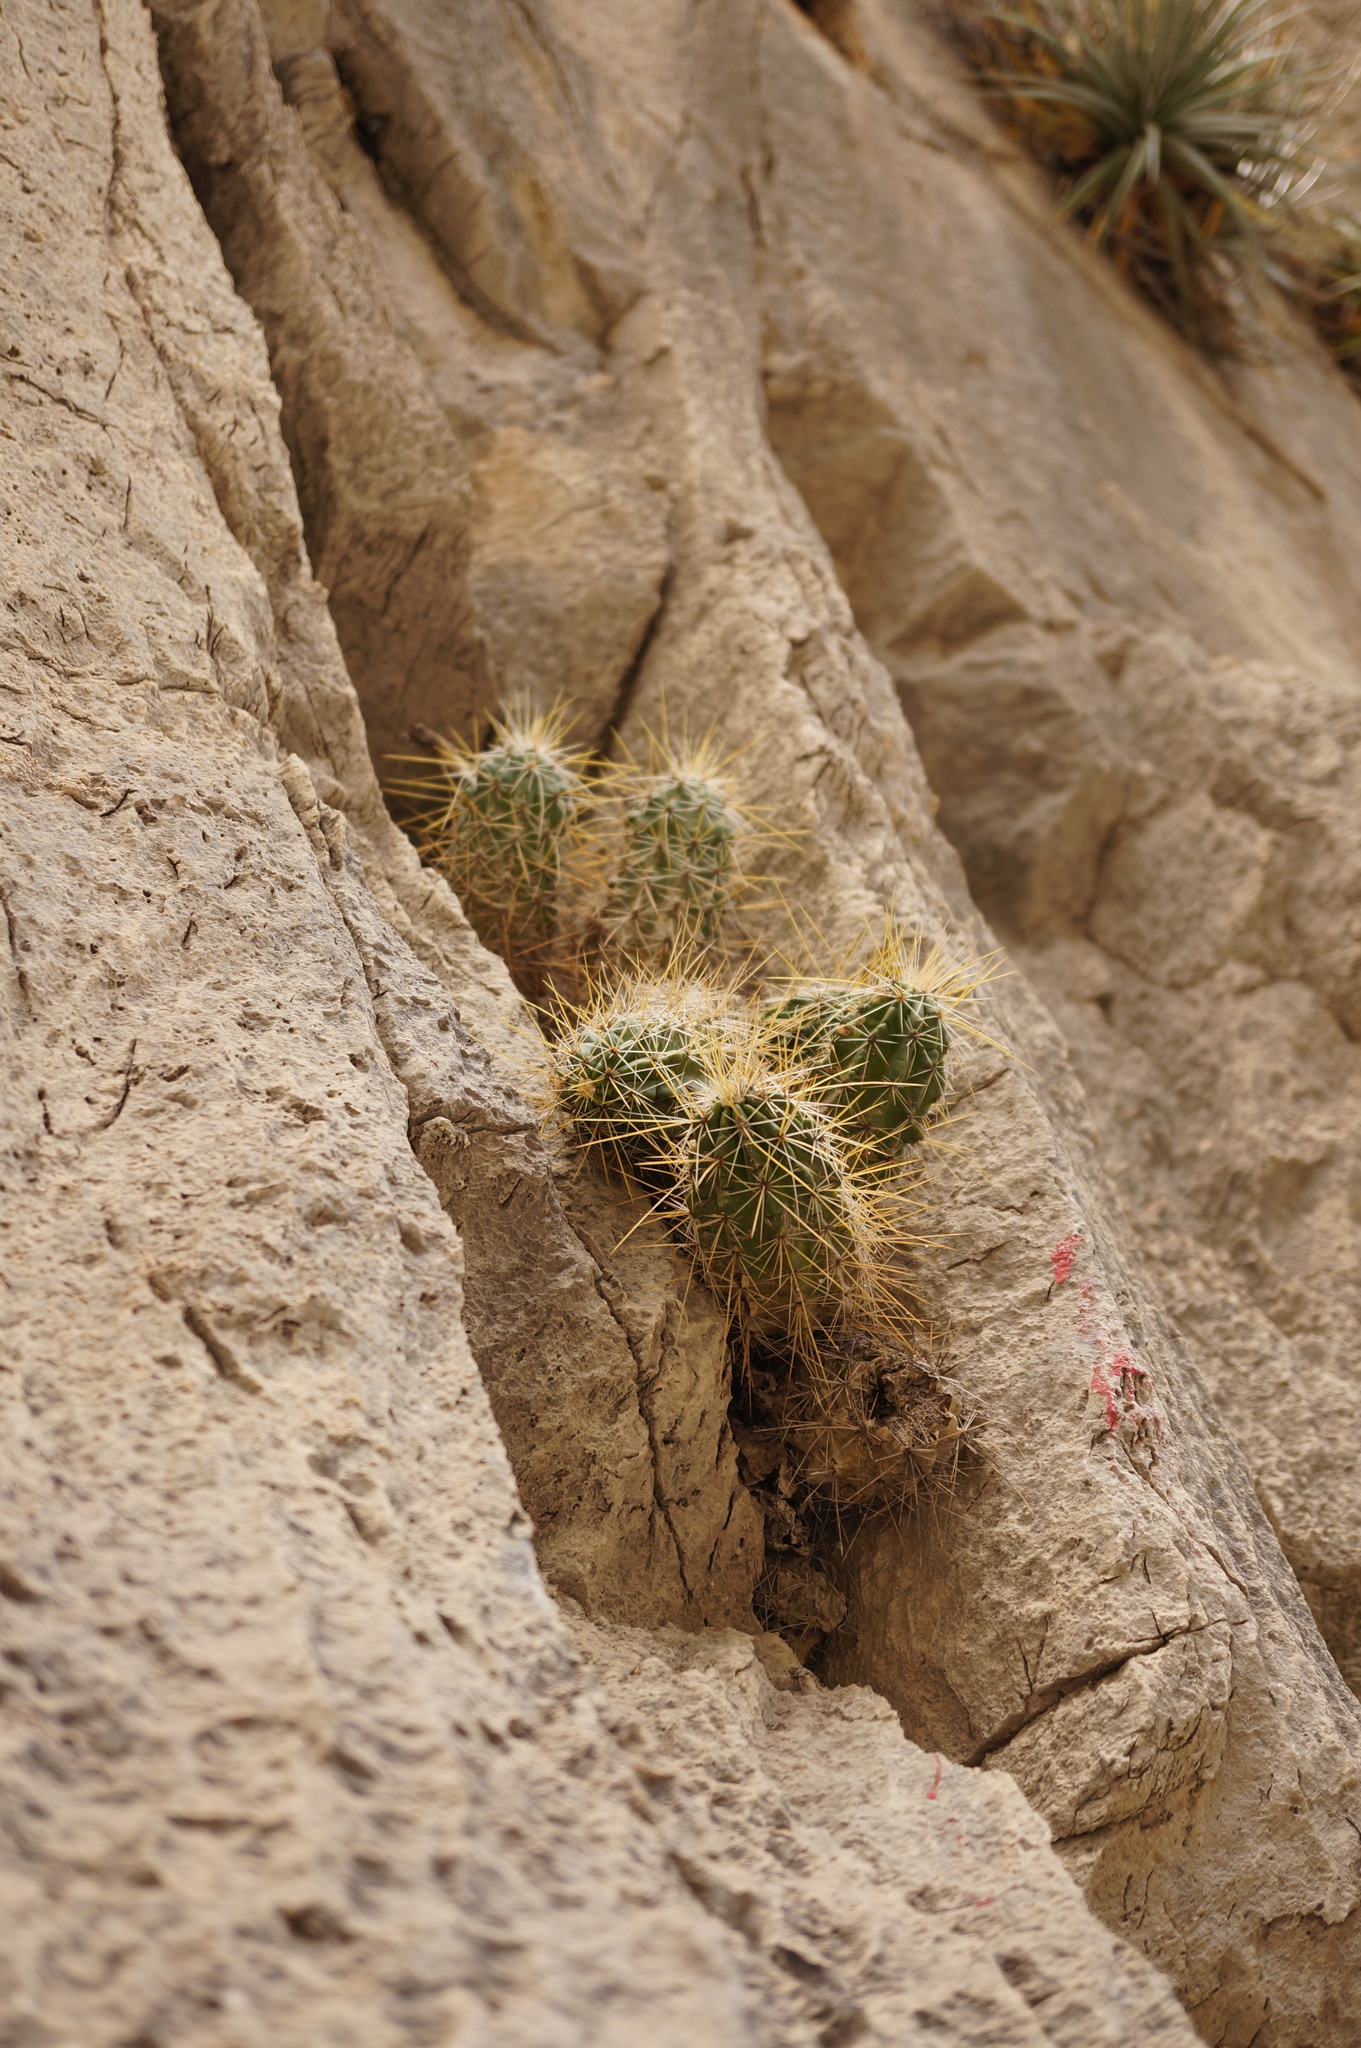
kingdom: Plantae
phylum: Tracheophyta
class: Magnoliopsida
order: Caryophyllales
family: Cactaceae
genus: Echinocereus
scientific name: Echinocereus viereckii
